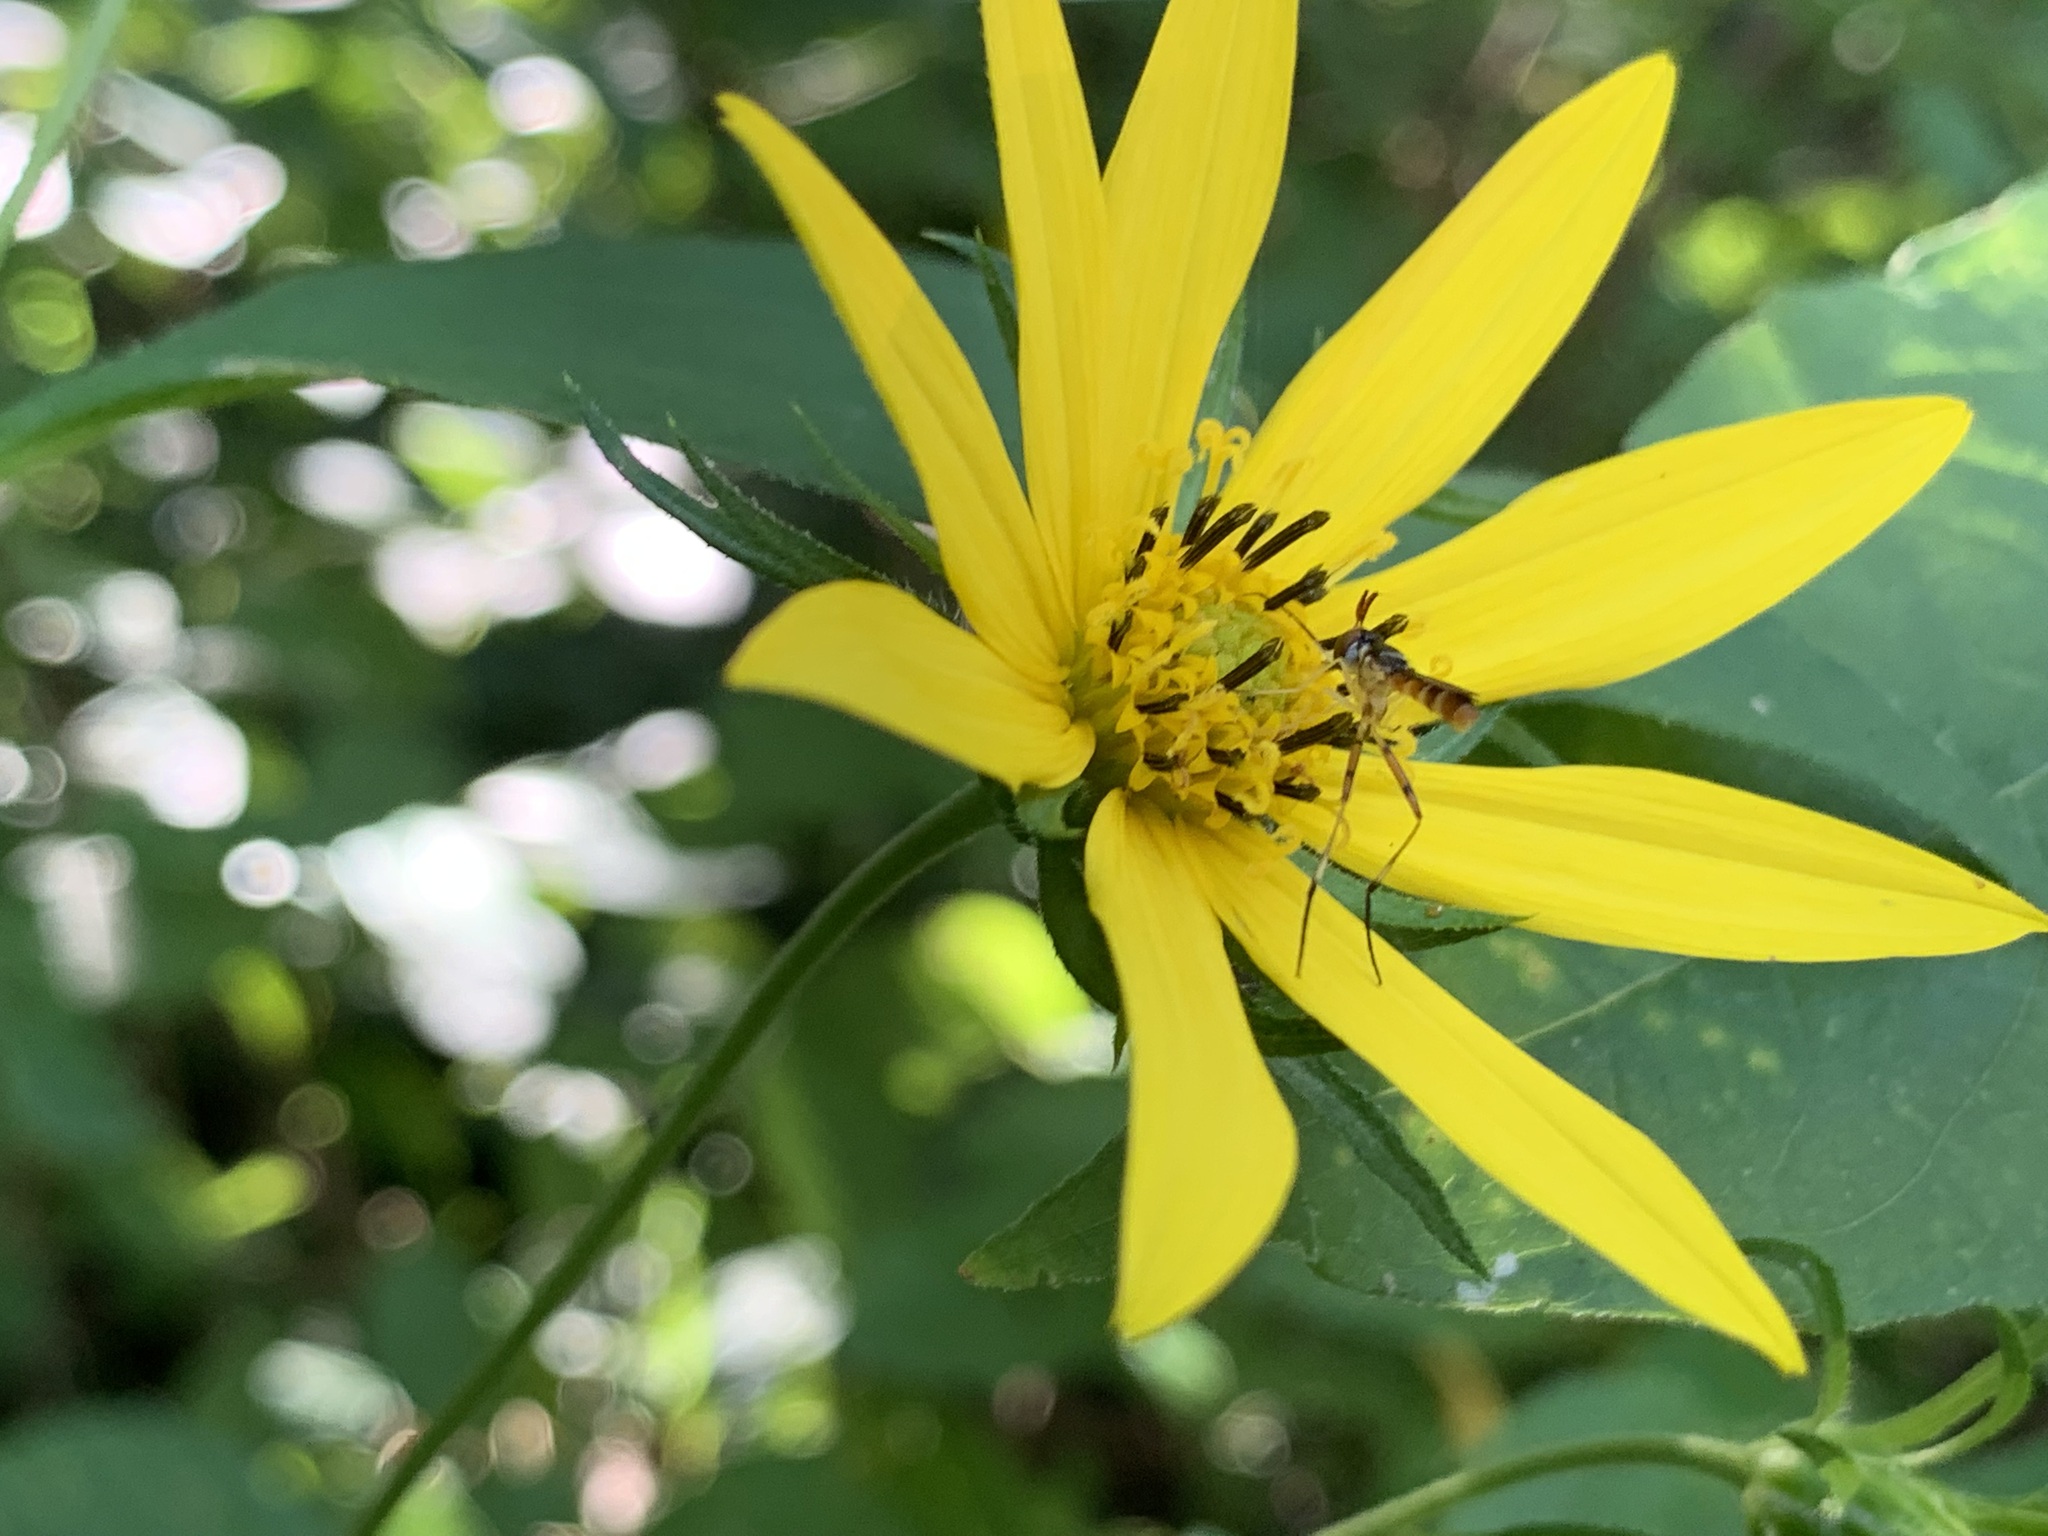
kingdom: Animalia
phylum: Arthropoda
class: Insecta
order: Diptera
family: Conopidae
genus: Stylogaster
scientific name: Stylogaster neglecta
